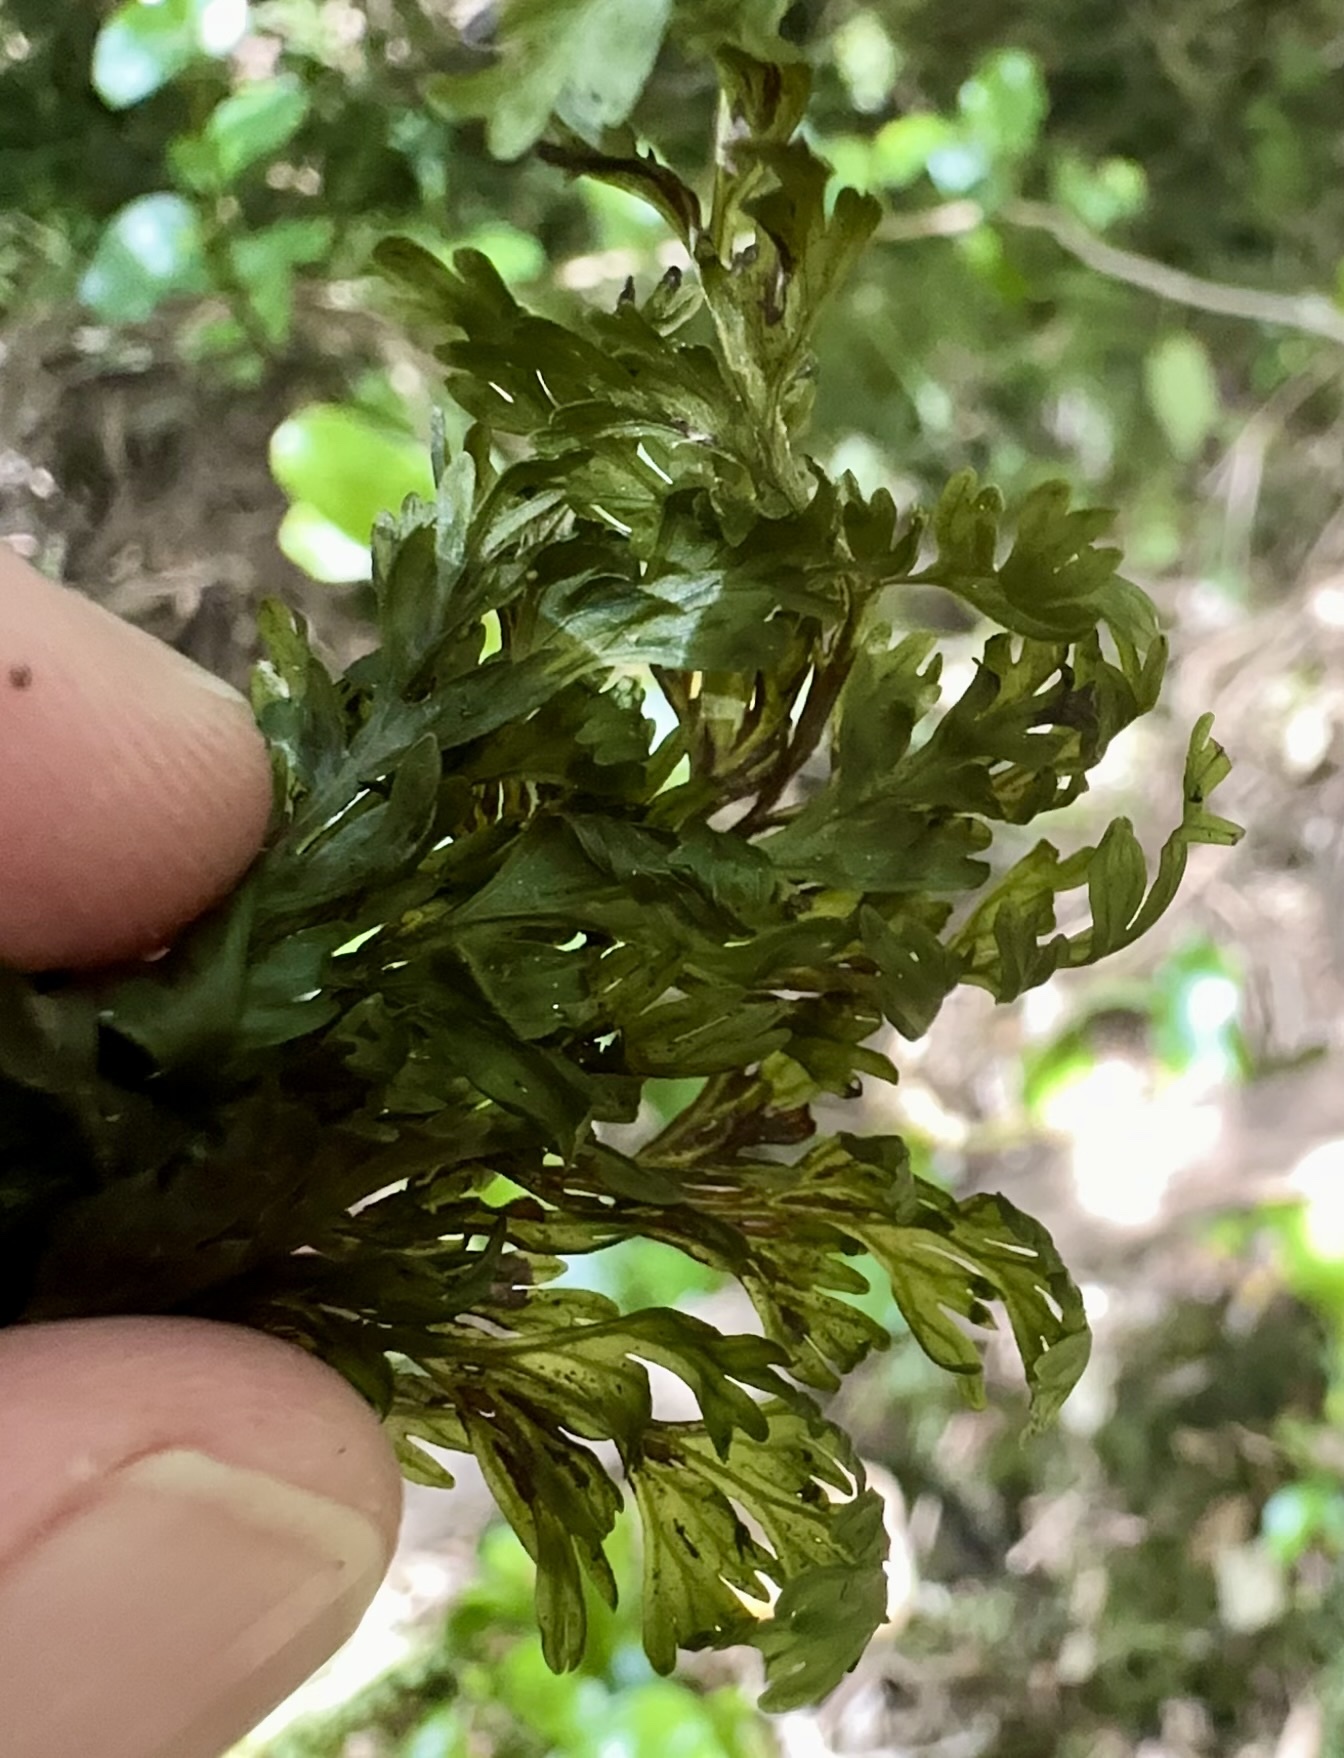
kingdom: Plantae
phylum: Tracheophyta
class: Polypodiopsida
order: Hymenophyllales
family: Hymenophyllaceae
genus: Hymenophyllum
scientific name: Hymenophyllum demissum
